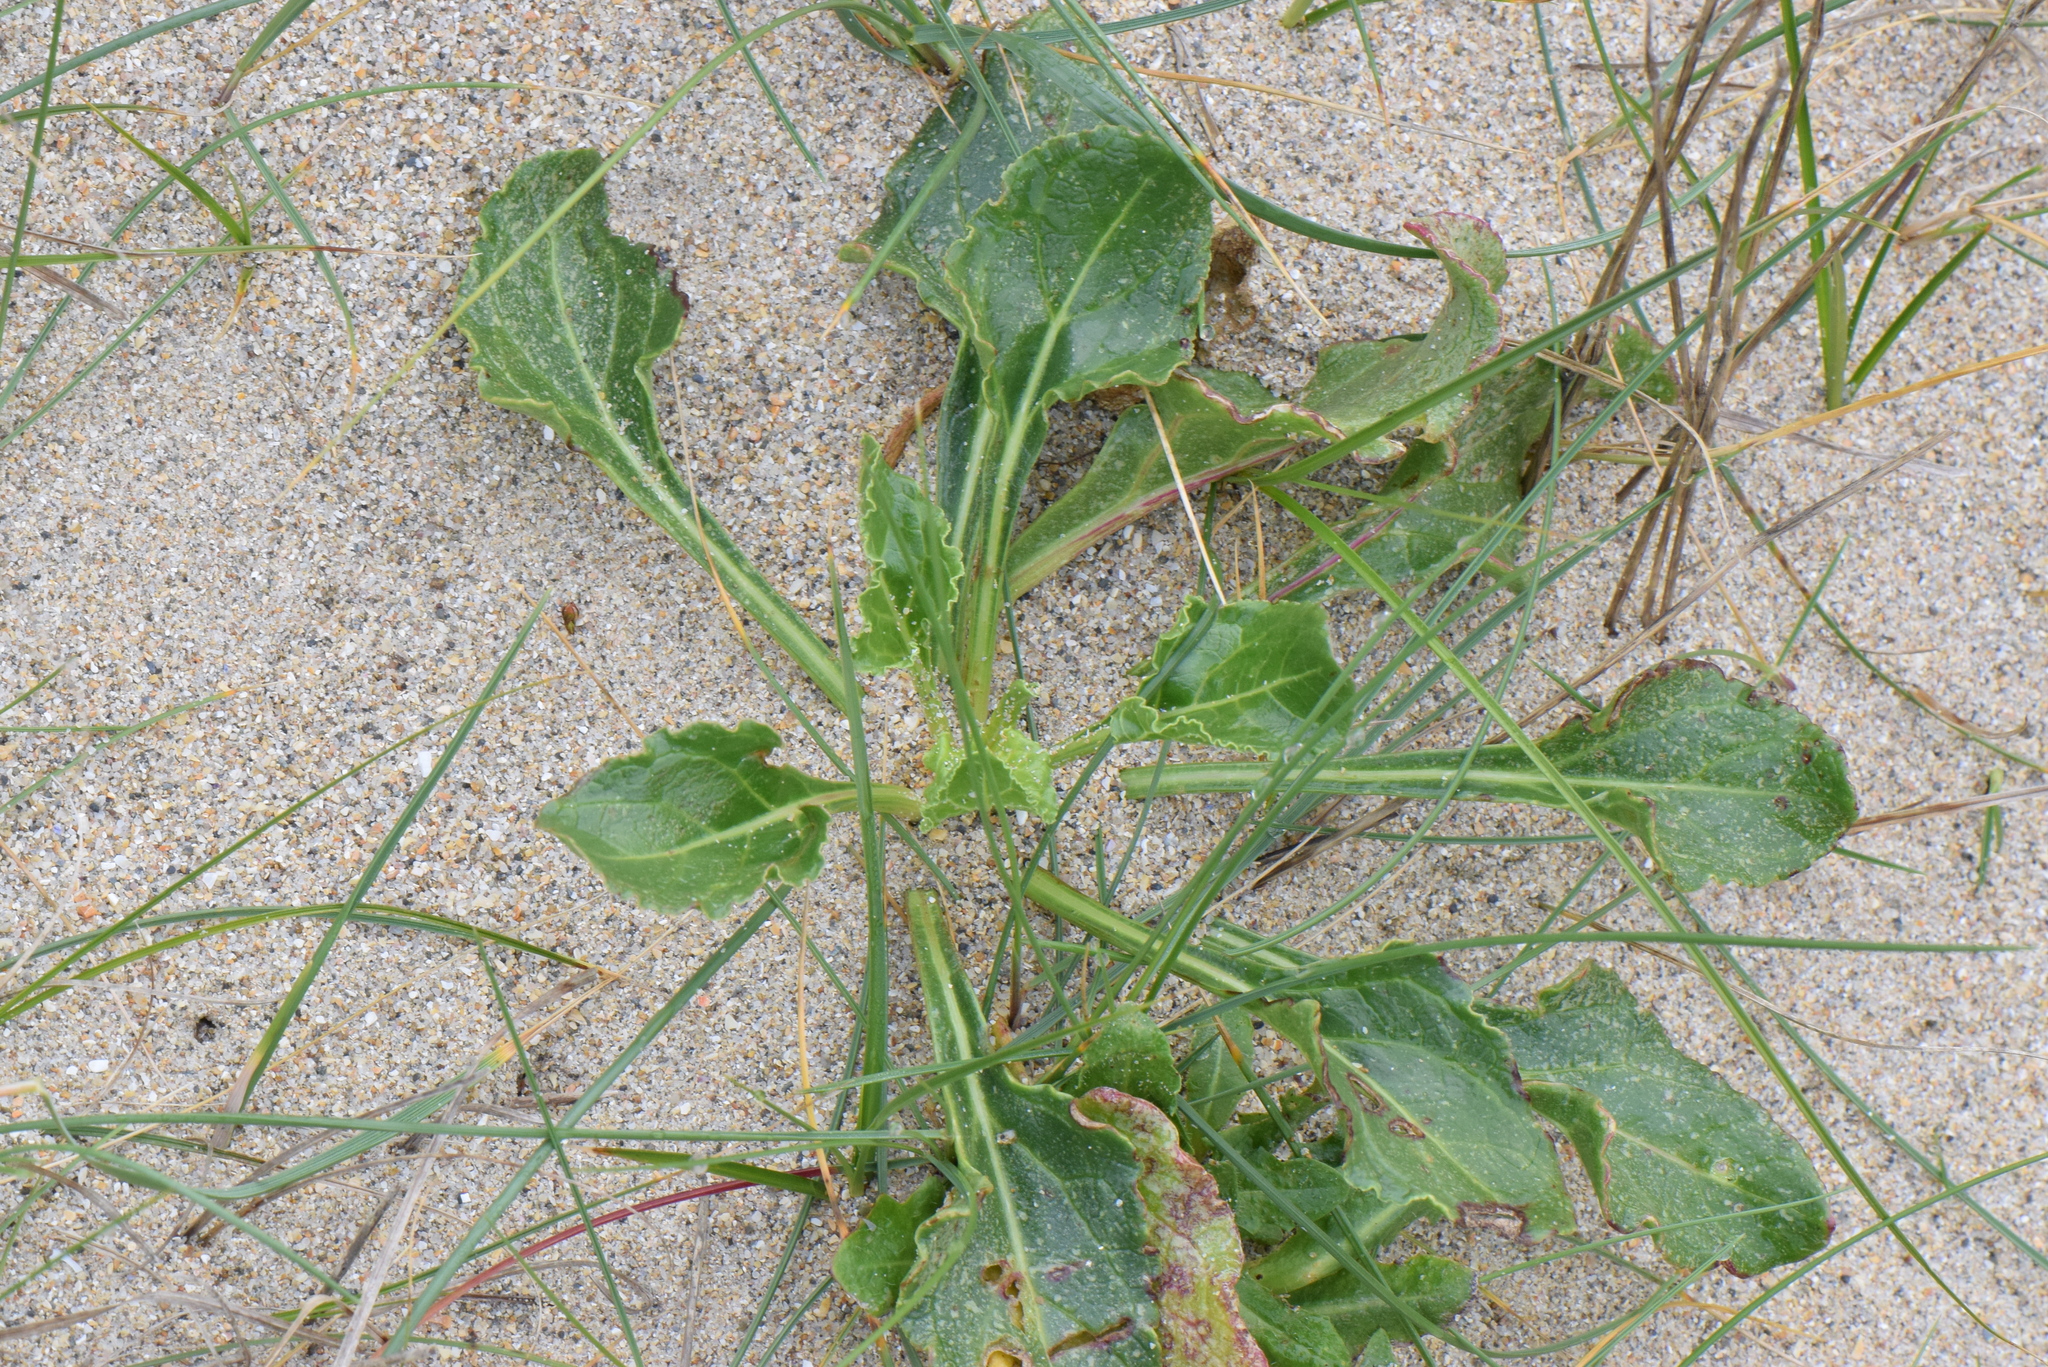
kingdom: Plantae
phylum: Tracheophyta
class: Magnoliopsida
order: Caryophyllales
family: Amaranthaceae
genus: Beta
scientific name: Beta vulgaris
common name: Beet
